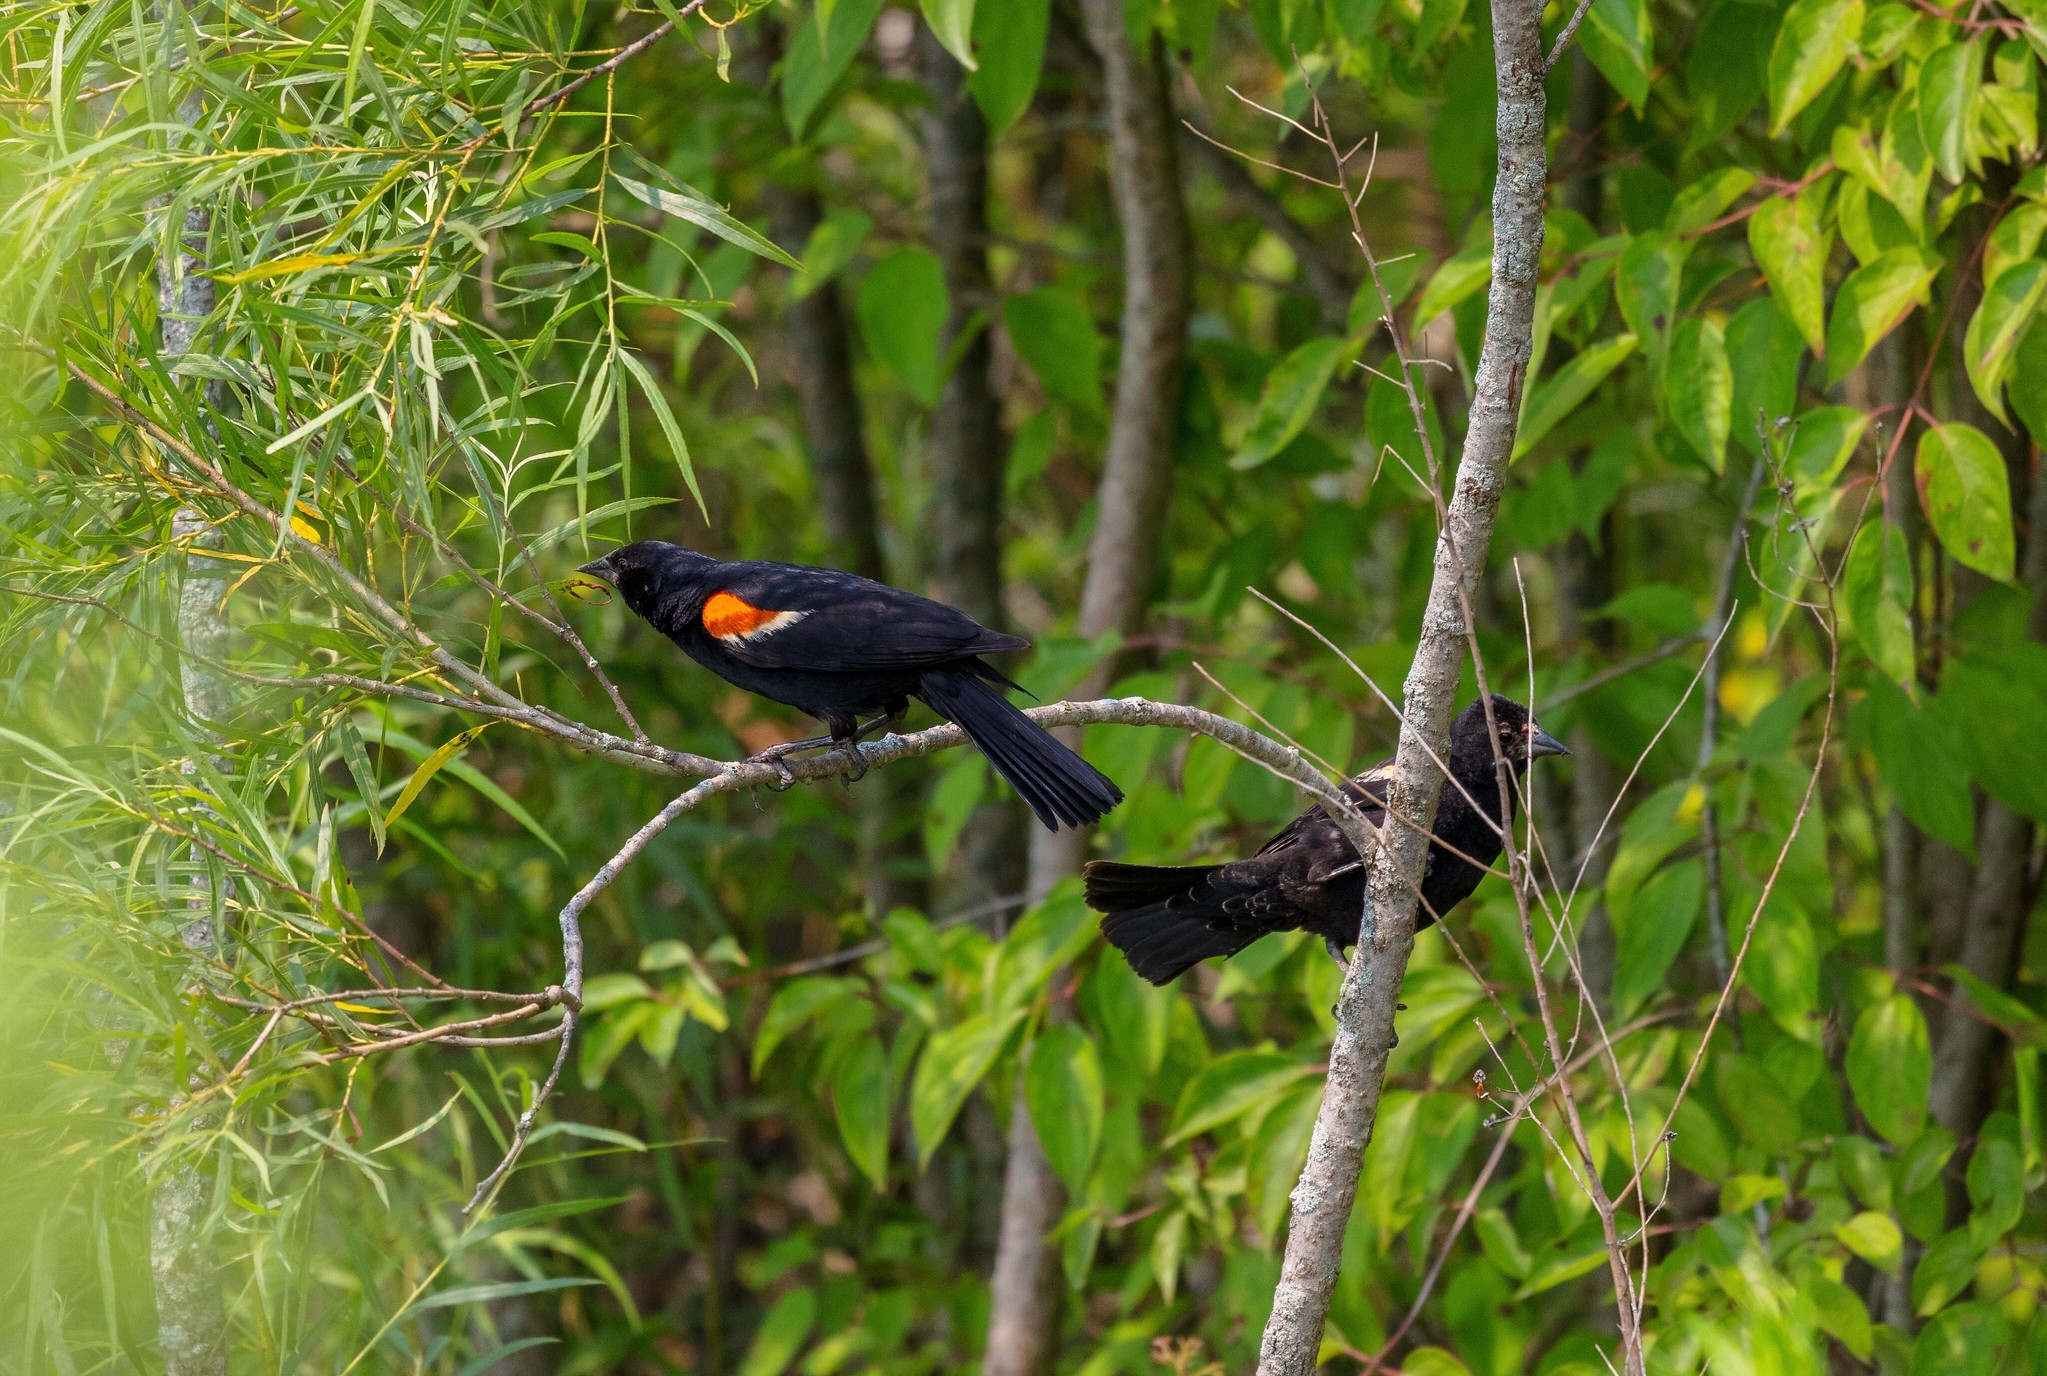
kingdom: Animalia
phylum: Chordata
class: Aves
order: Passeriformes
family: Icteridae
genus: Agelaius
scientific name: Agelaius phoeniceus
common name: Red-winged blackbird
